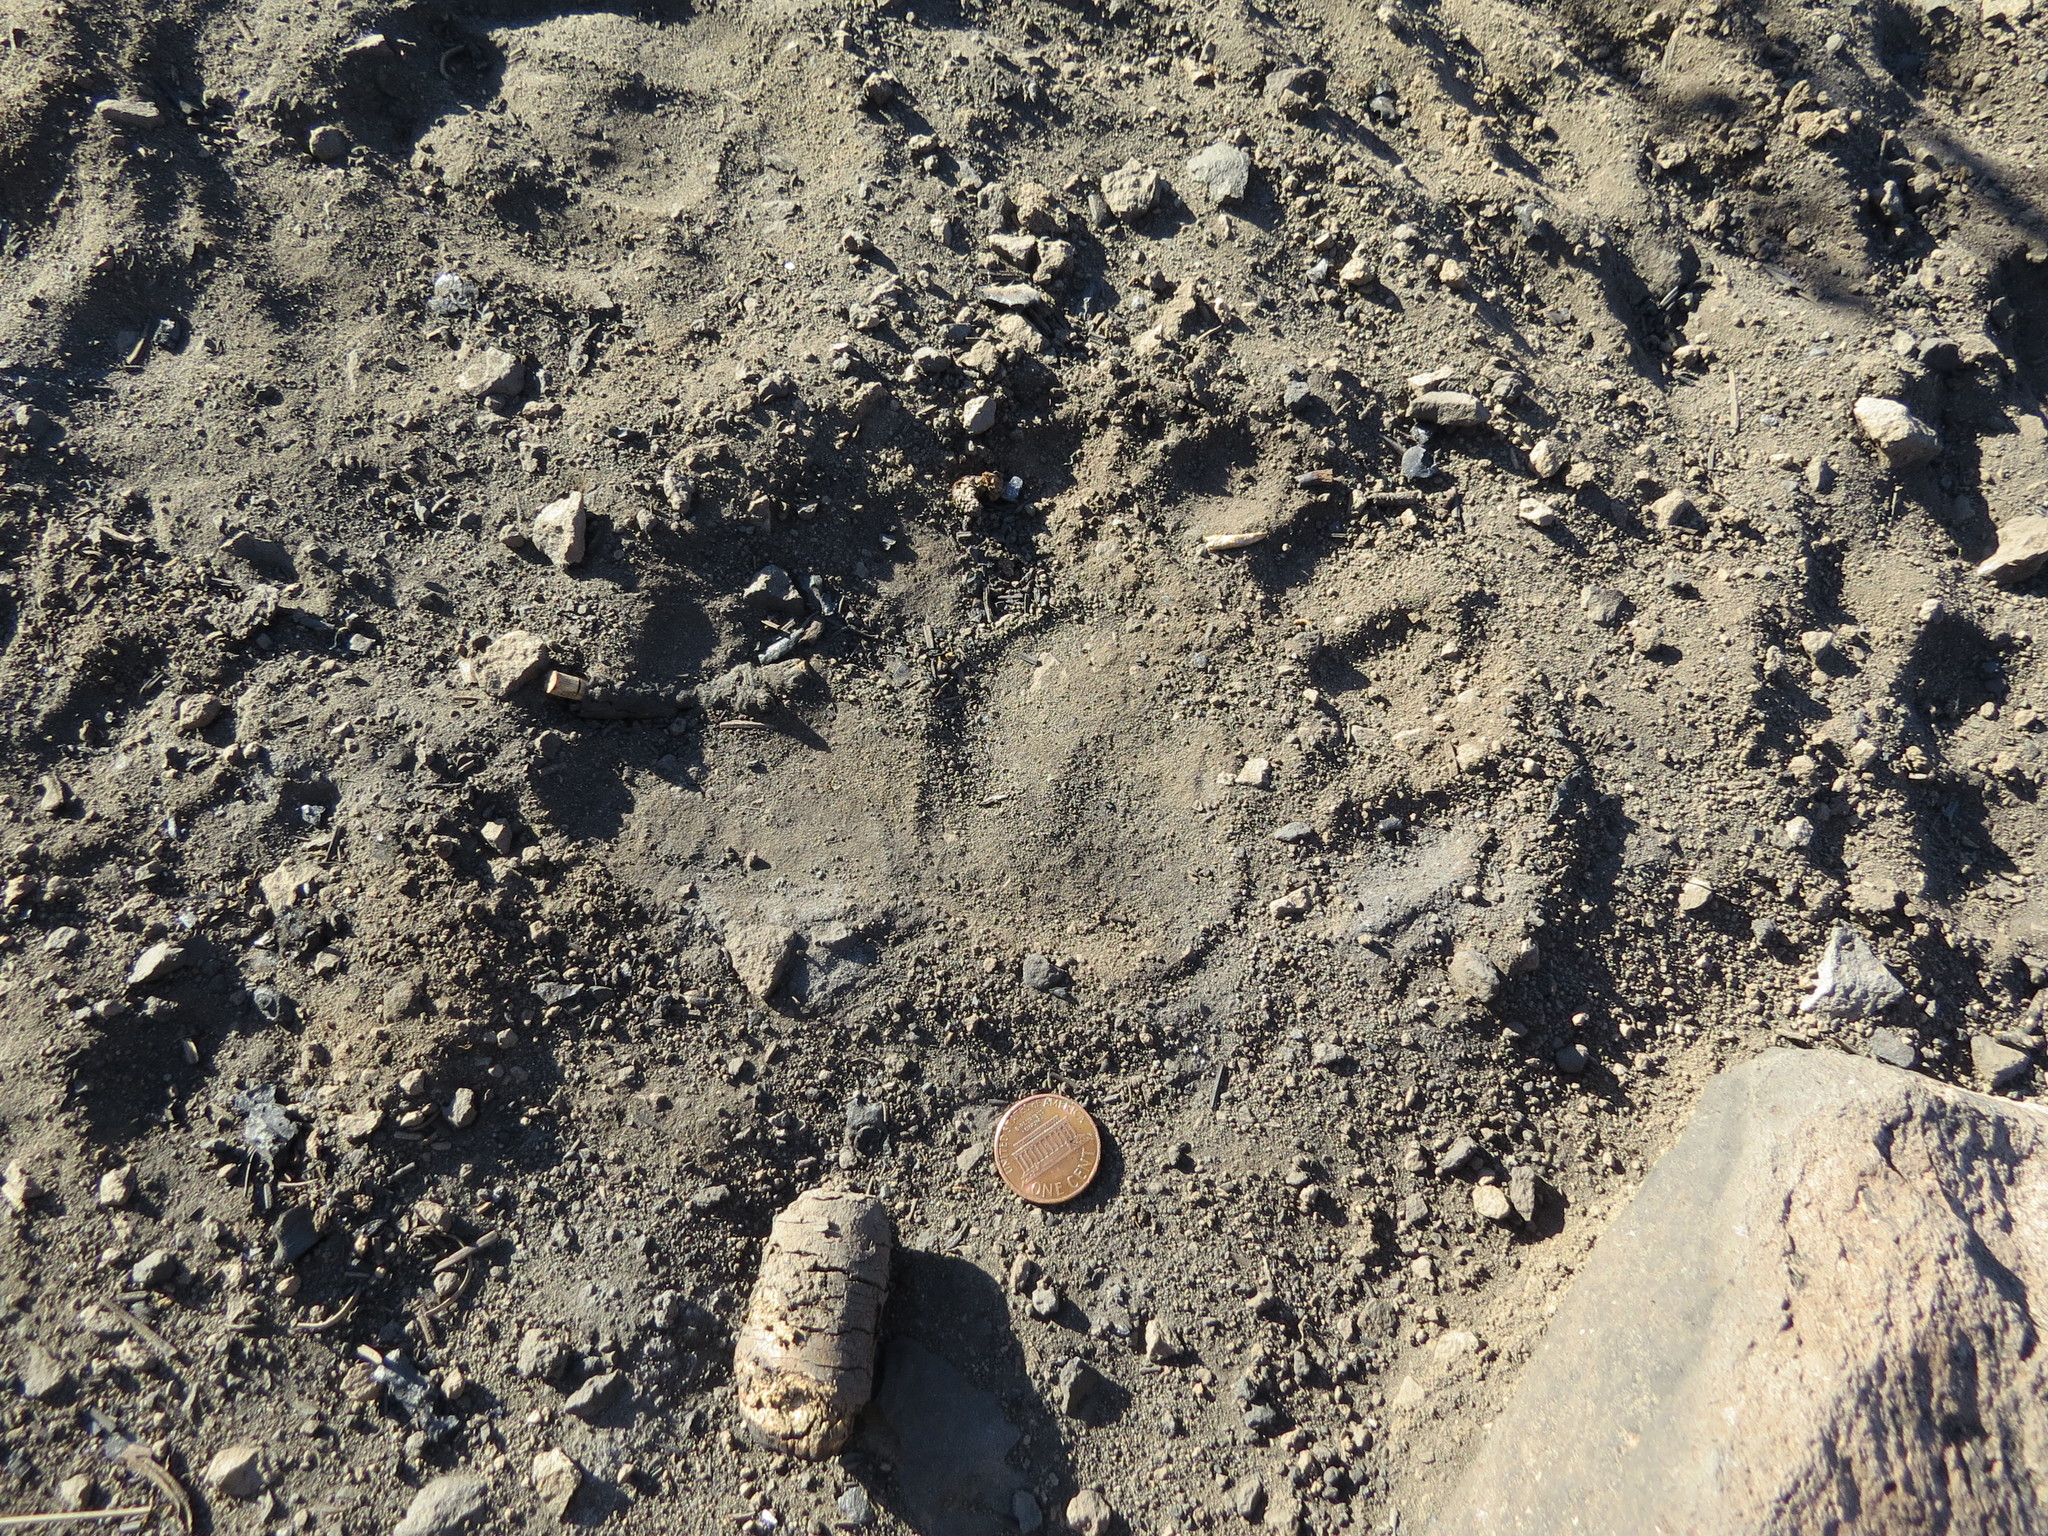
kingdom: Animalia
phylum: Chordata
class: Mammalia
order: Carnivora
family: Ursidae
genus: Ursus
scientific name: Ursus americanus
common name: American black bear
